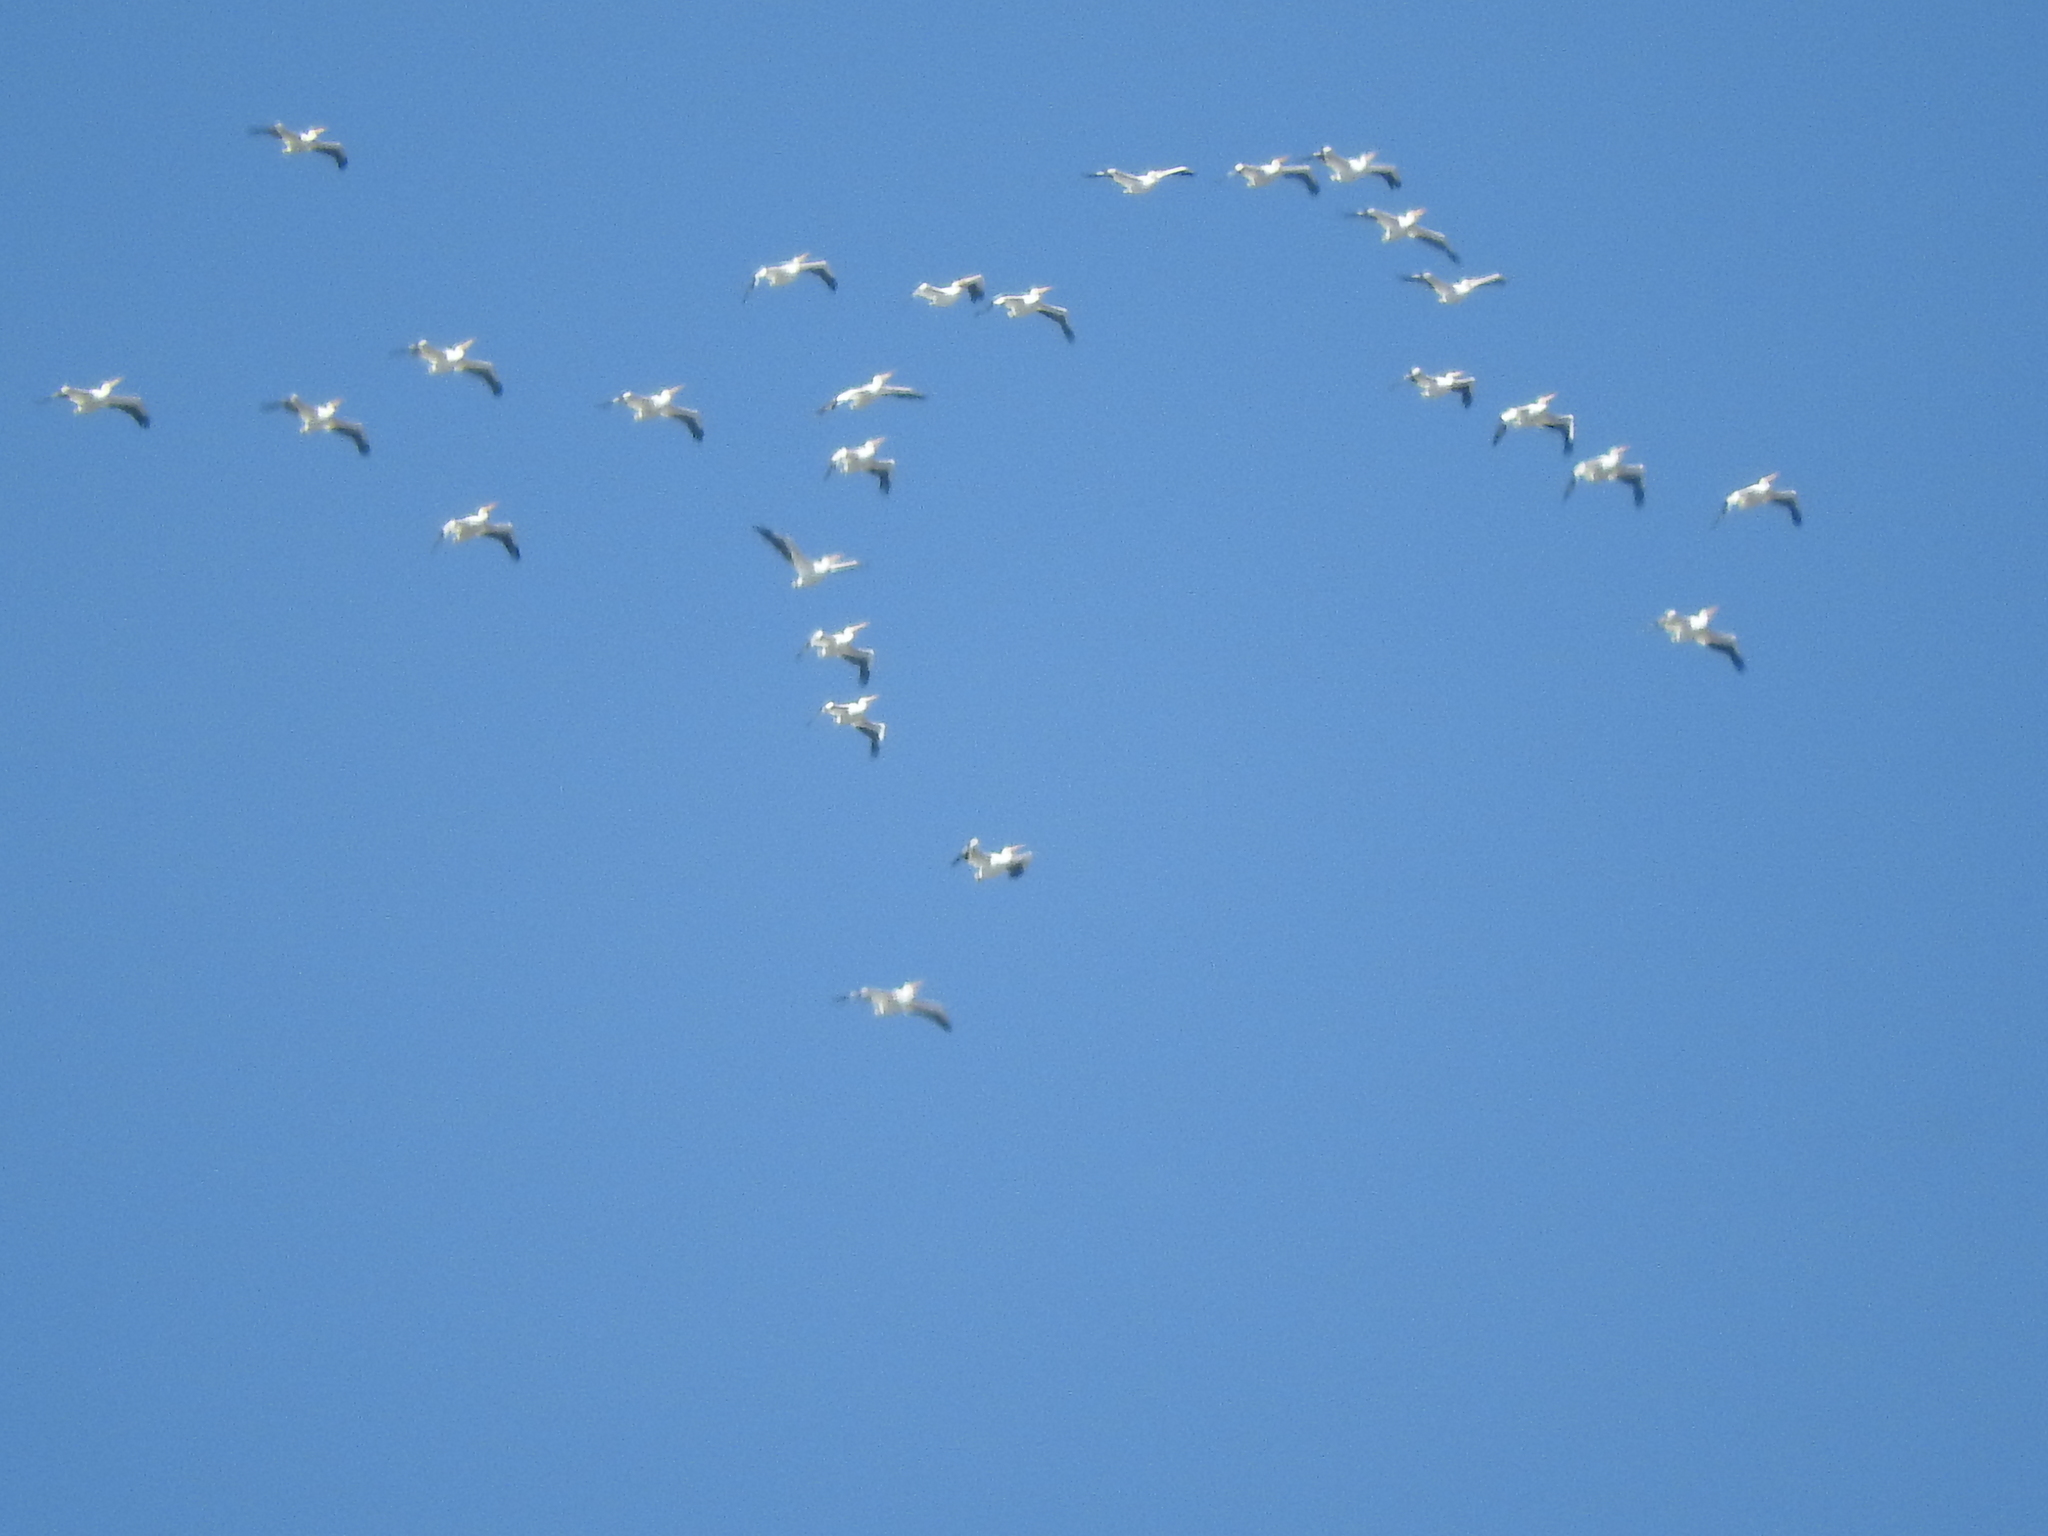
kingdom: Animalia
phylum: Chordata
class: Aves
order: Pelecaniformes
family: Pelecanidae
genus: Pelecanus
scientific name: Pelecanus erythrorhynchos
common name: American white pelican
